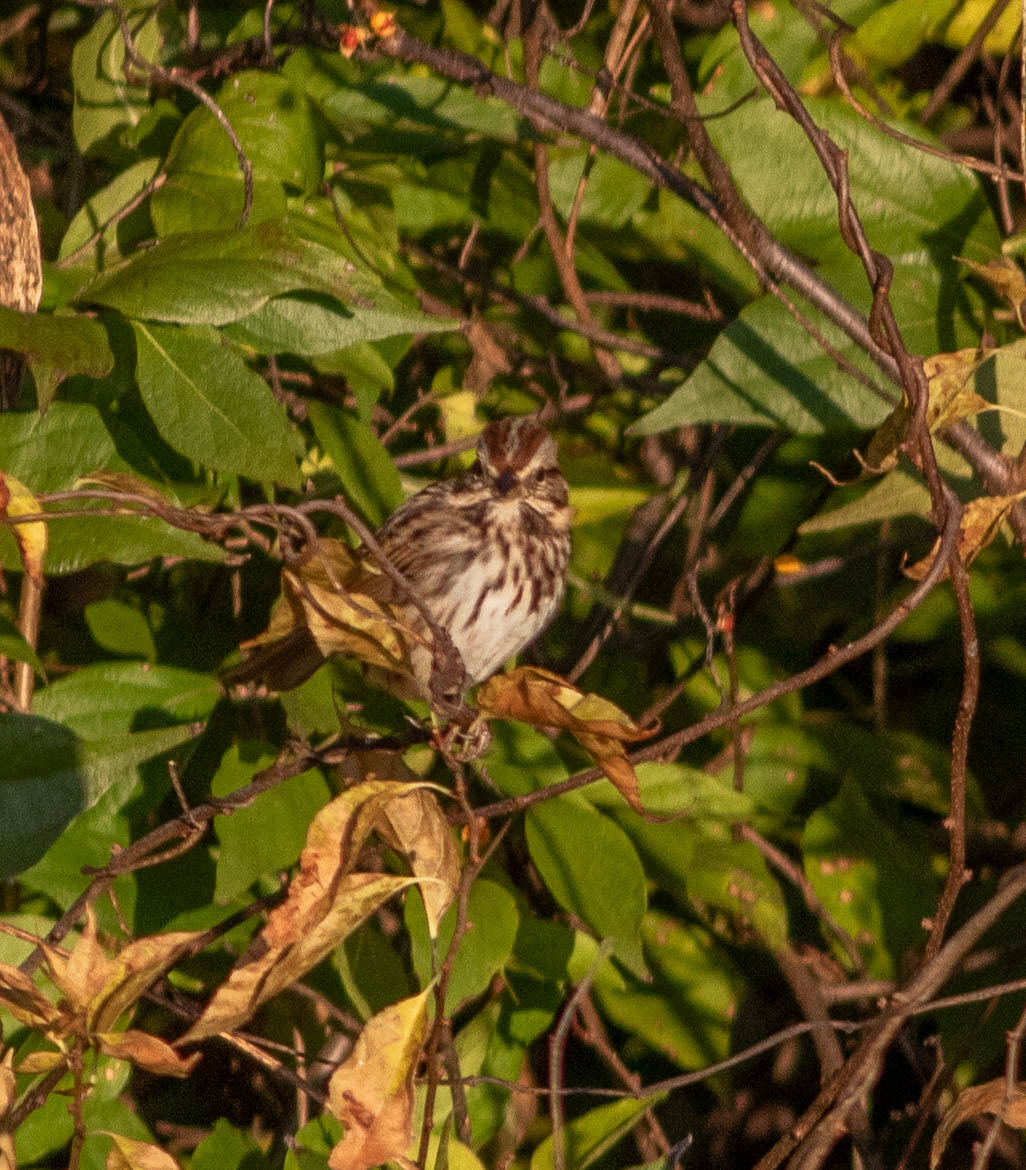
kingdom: Animalia
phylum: Chordata
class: Aves
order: Passeriformes
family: Passerellidae
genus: Melospiza
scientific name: Melospiza melodia
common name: Song sparrow
